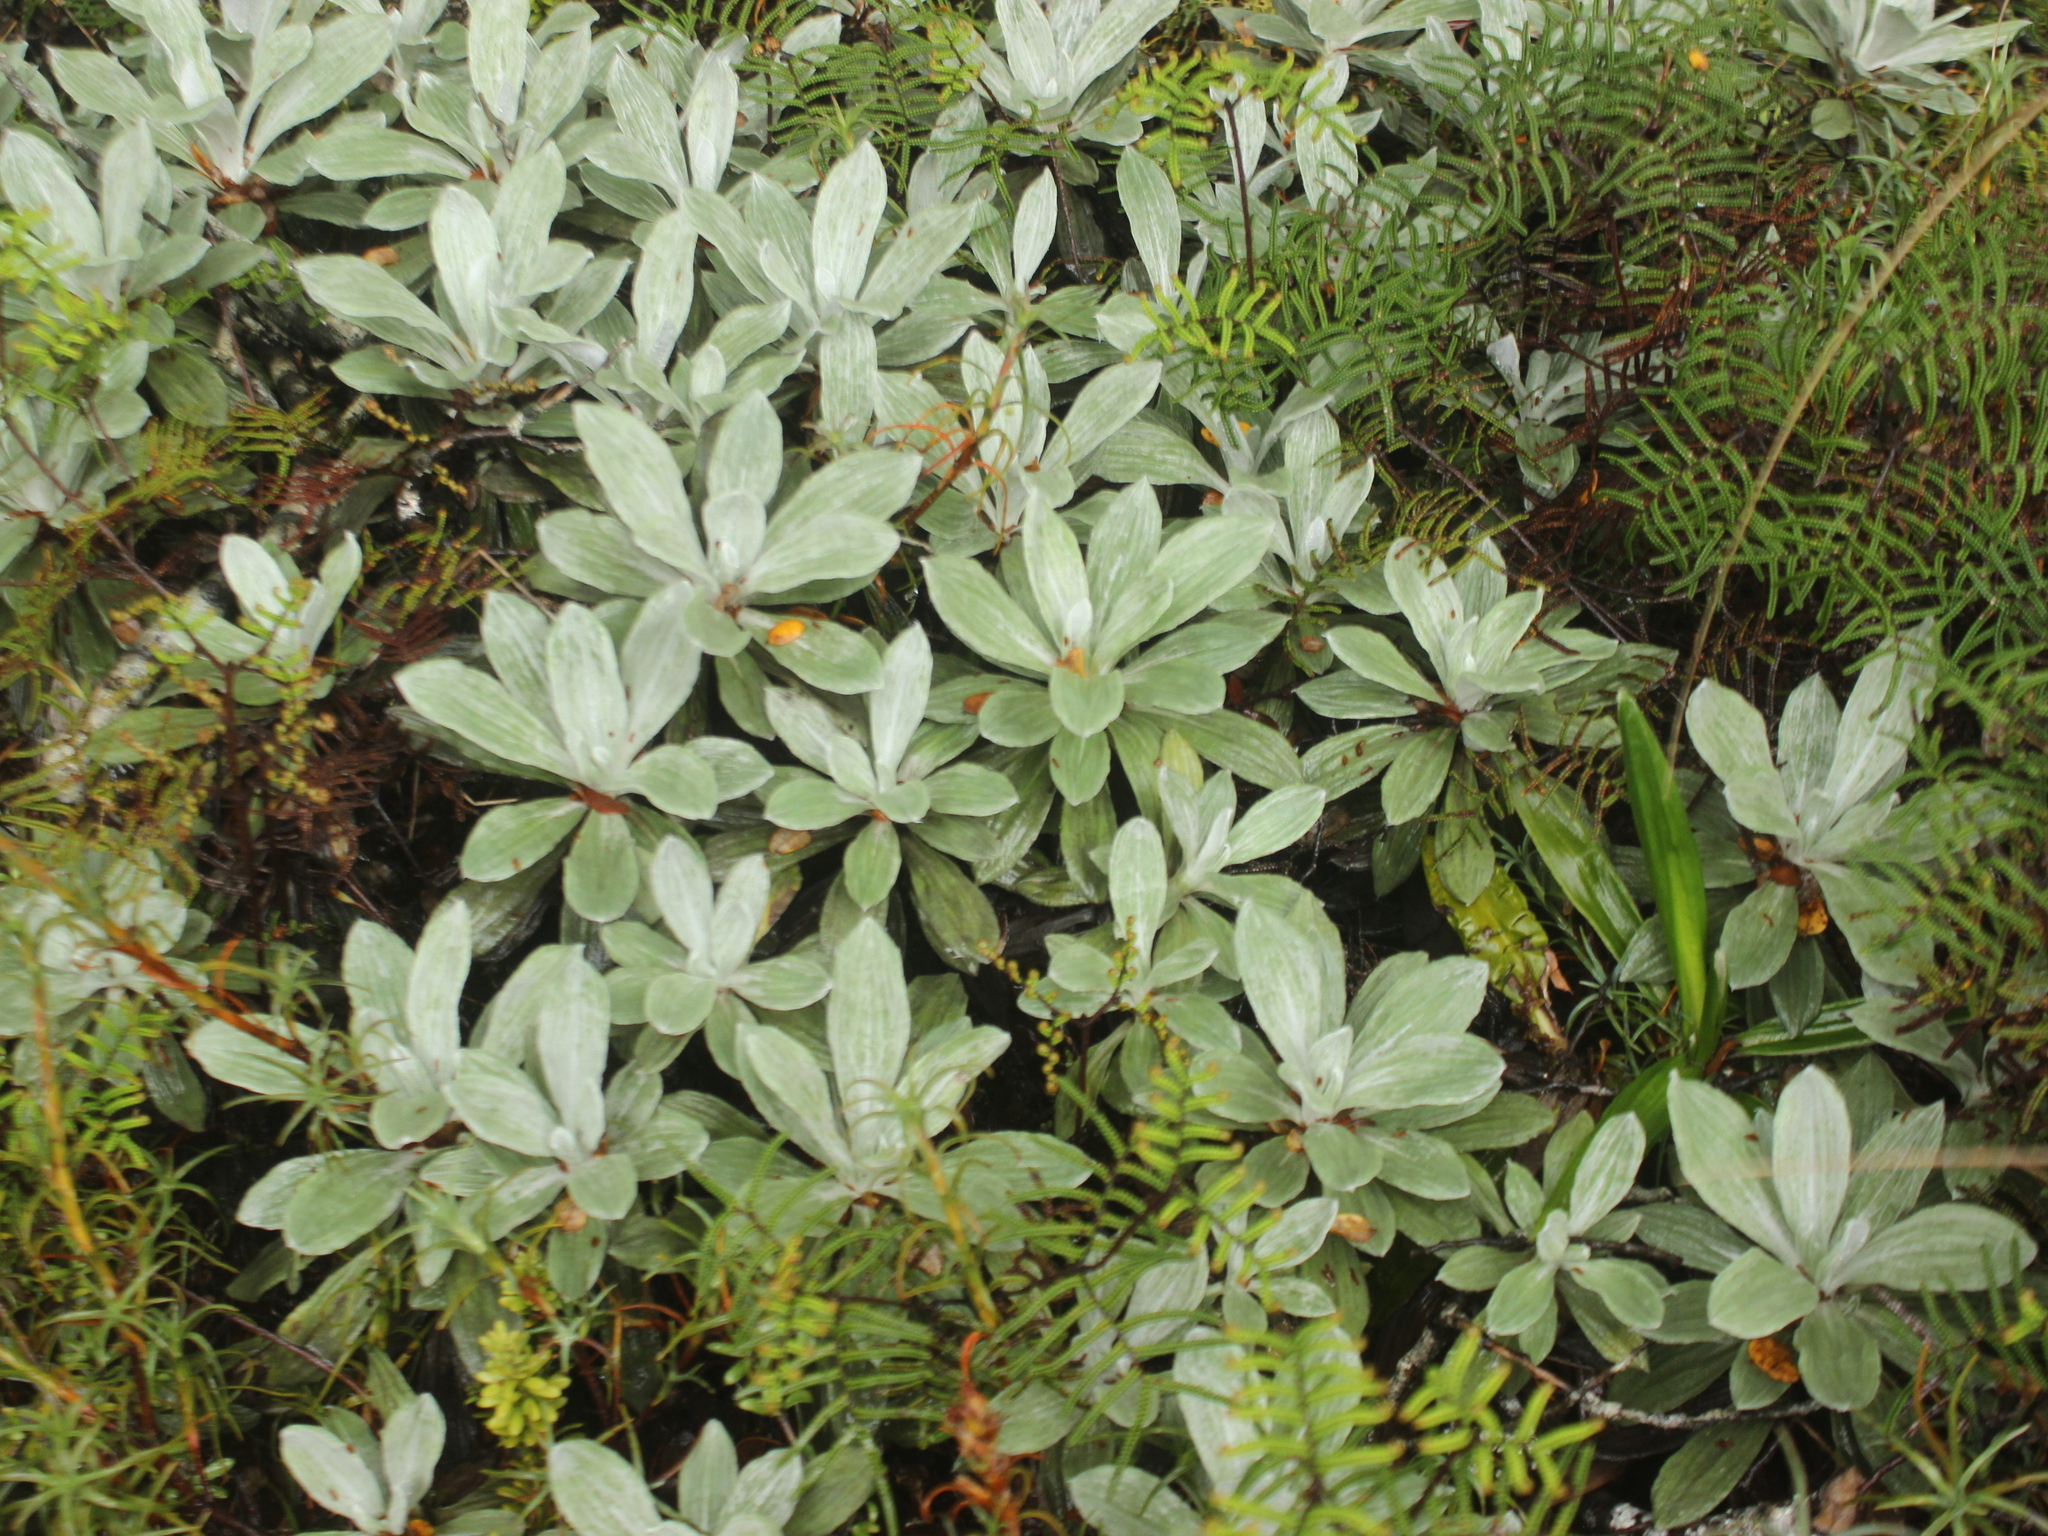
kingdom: Plantae
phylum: Tracheophyta
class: Magnoliopsida
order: Asterales
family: Asteraceae
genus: Celmisia
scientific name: Celmisia incana
